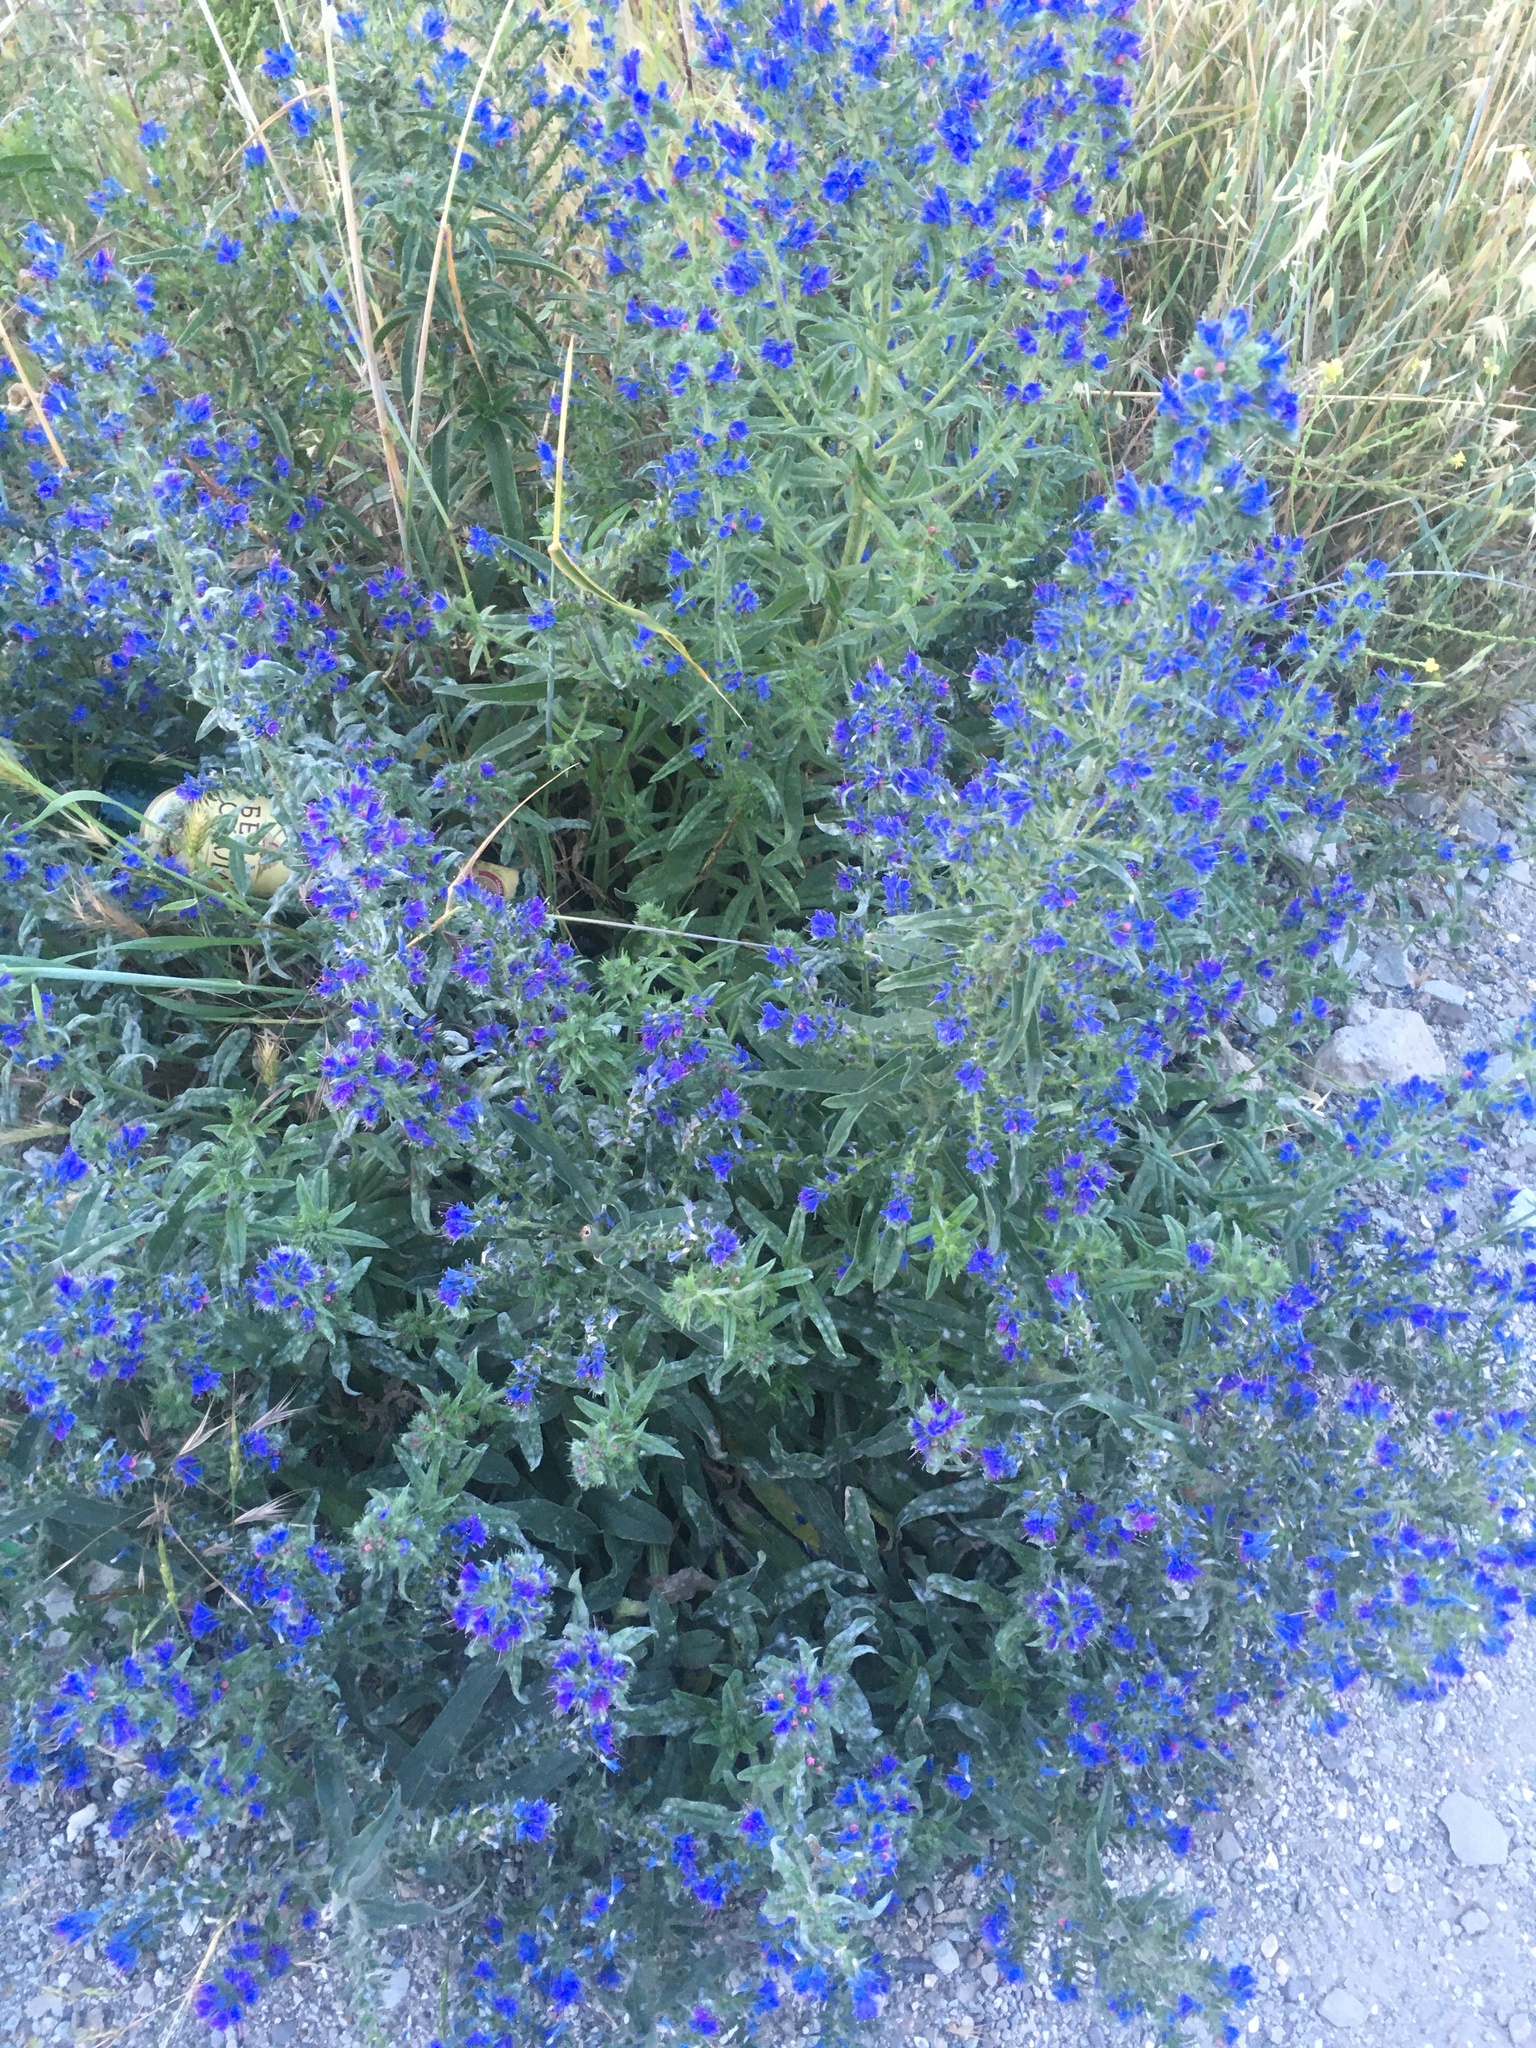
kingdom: Plantae
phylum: Tracheophyta
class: Magnoliopsida
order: Boraginales
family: Boraginaceae
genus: Echium
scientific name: Echium vulgare
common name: Common viper's bugloss
